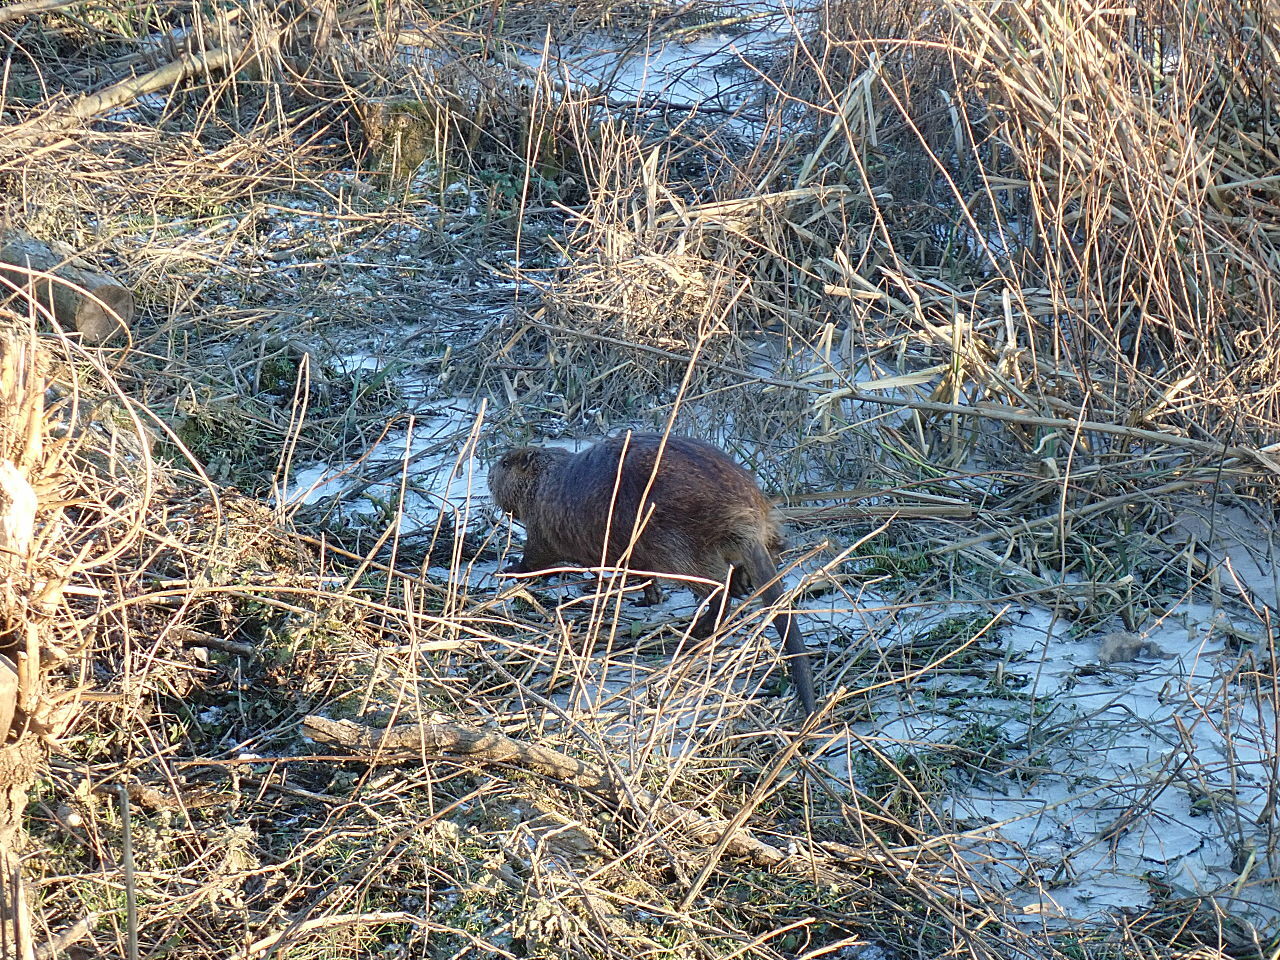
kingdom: Animalia
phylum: Chordata
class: Mammalia
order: Rodentia
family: Myocastoridae
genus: Myocastor
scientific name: Myocastor coypus
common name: Coypu
